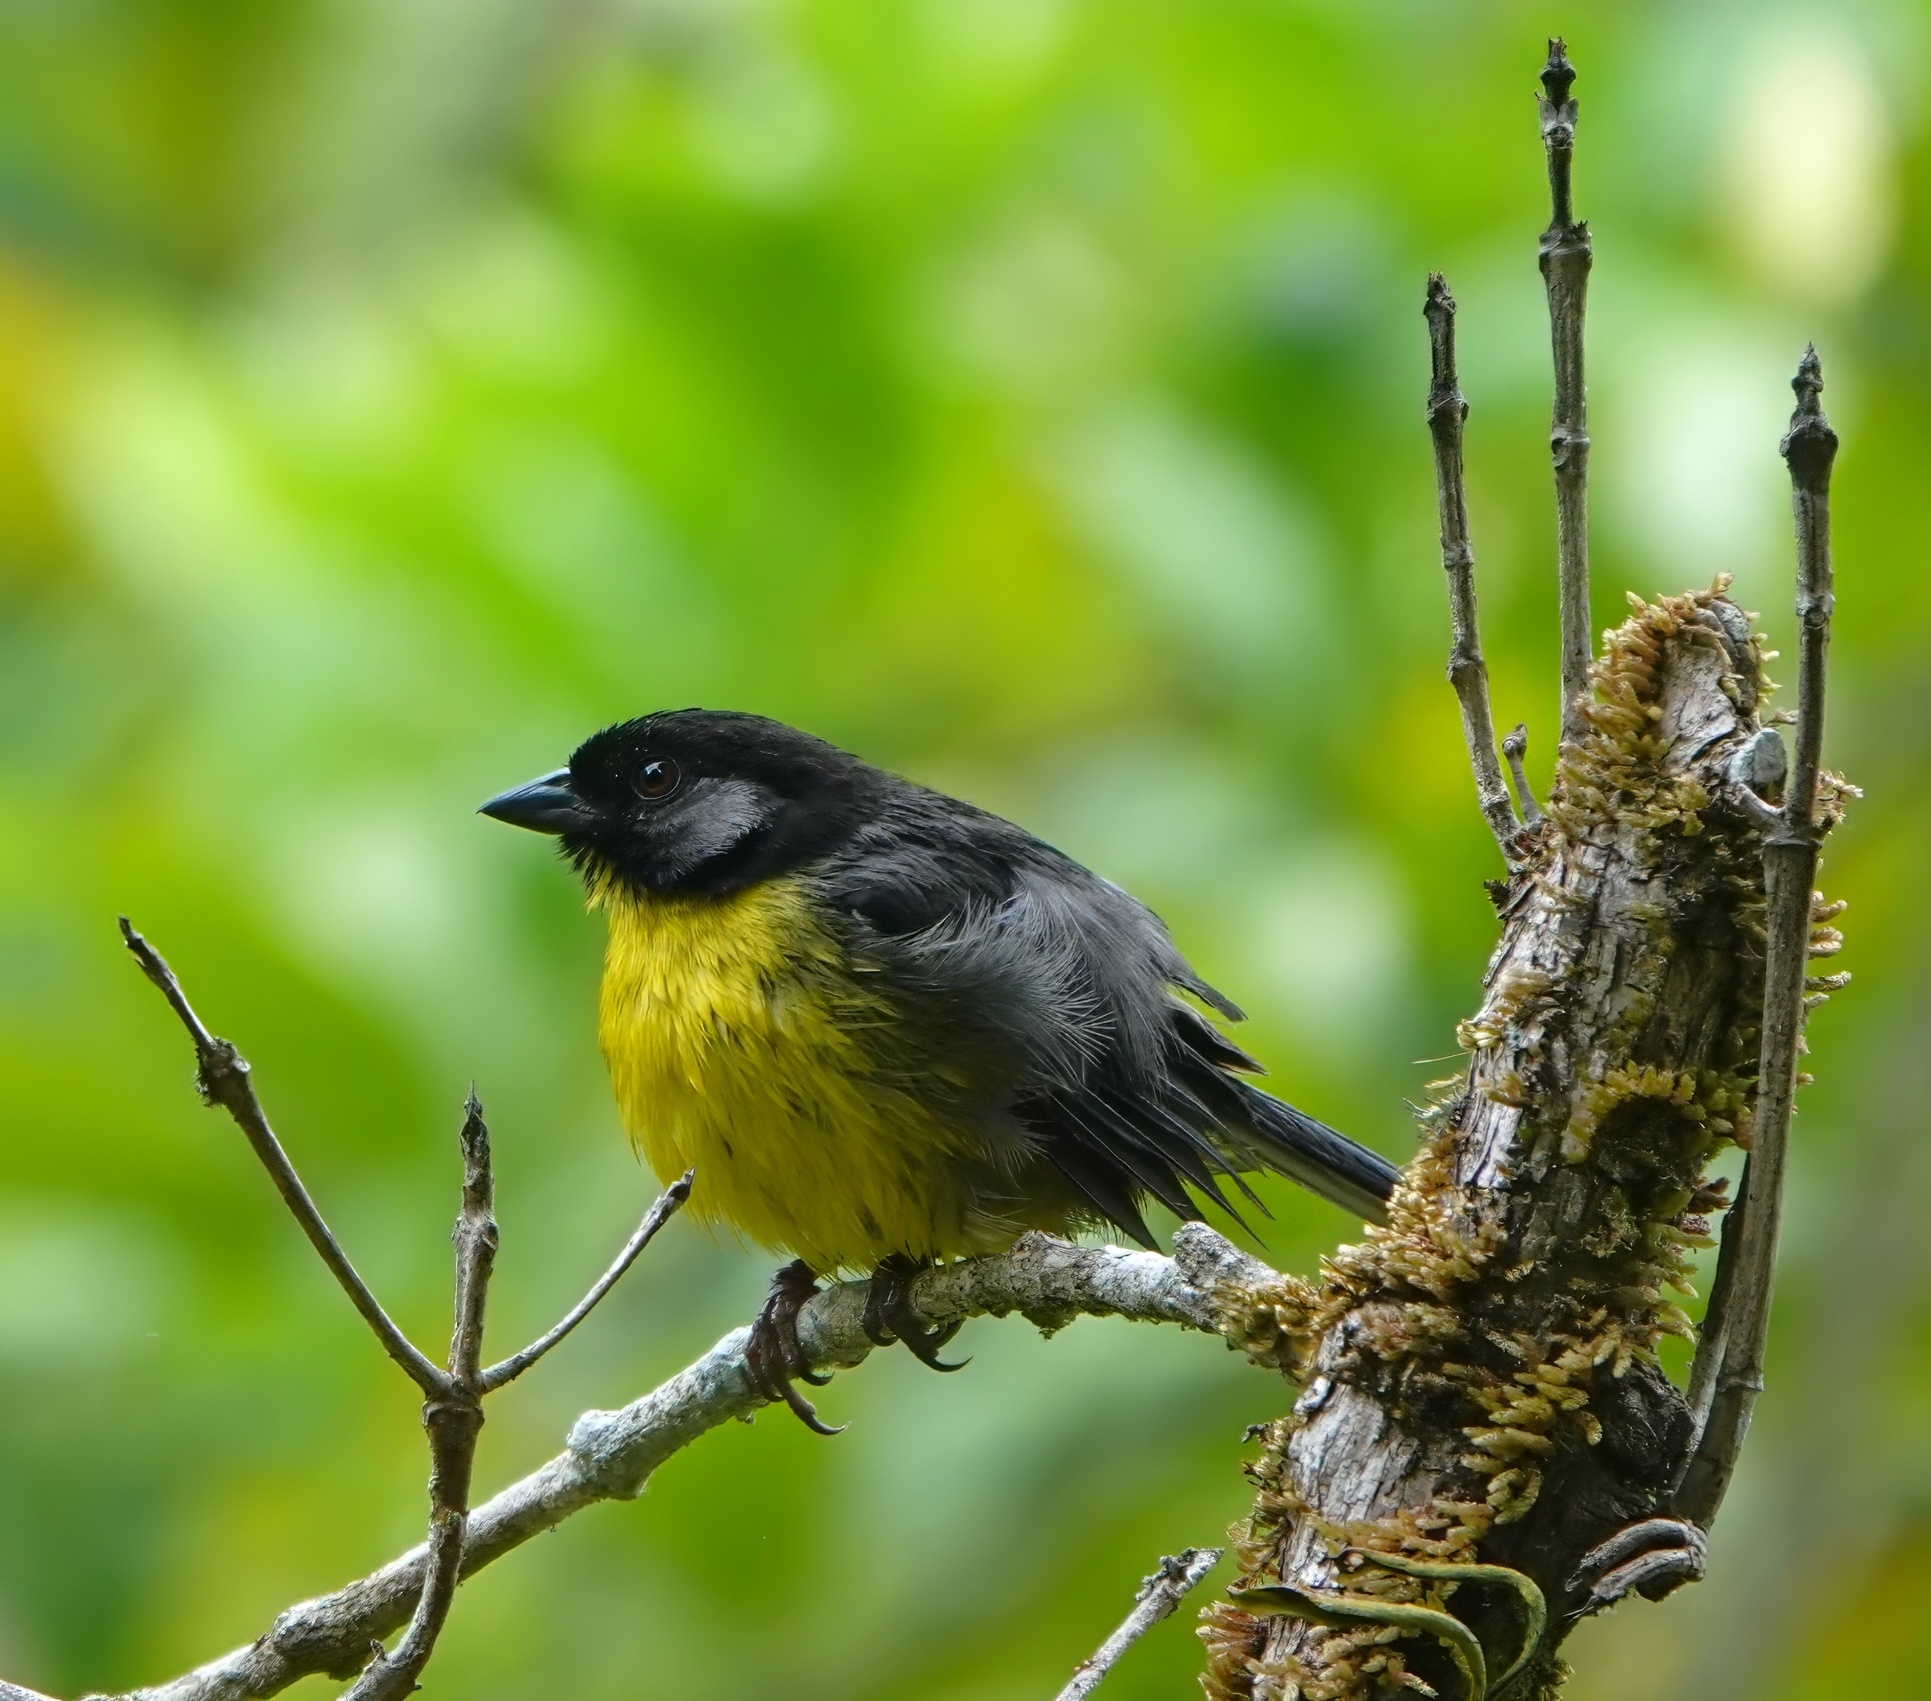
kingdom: Animalia
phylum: Chordata
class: Aves
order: Passeriformes
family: Passerellidae
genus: Atlapetes
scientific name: Atlapetes melanocephalus
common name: Santa marta brush-finch
